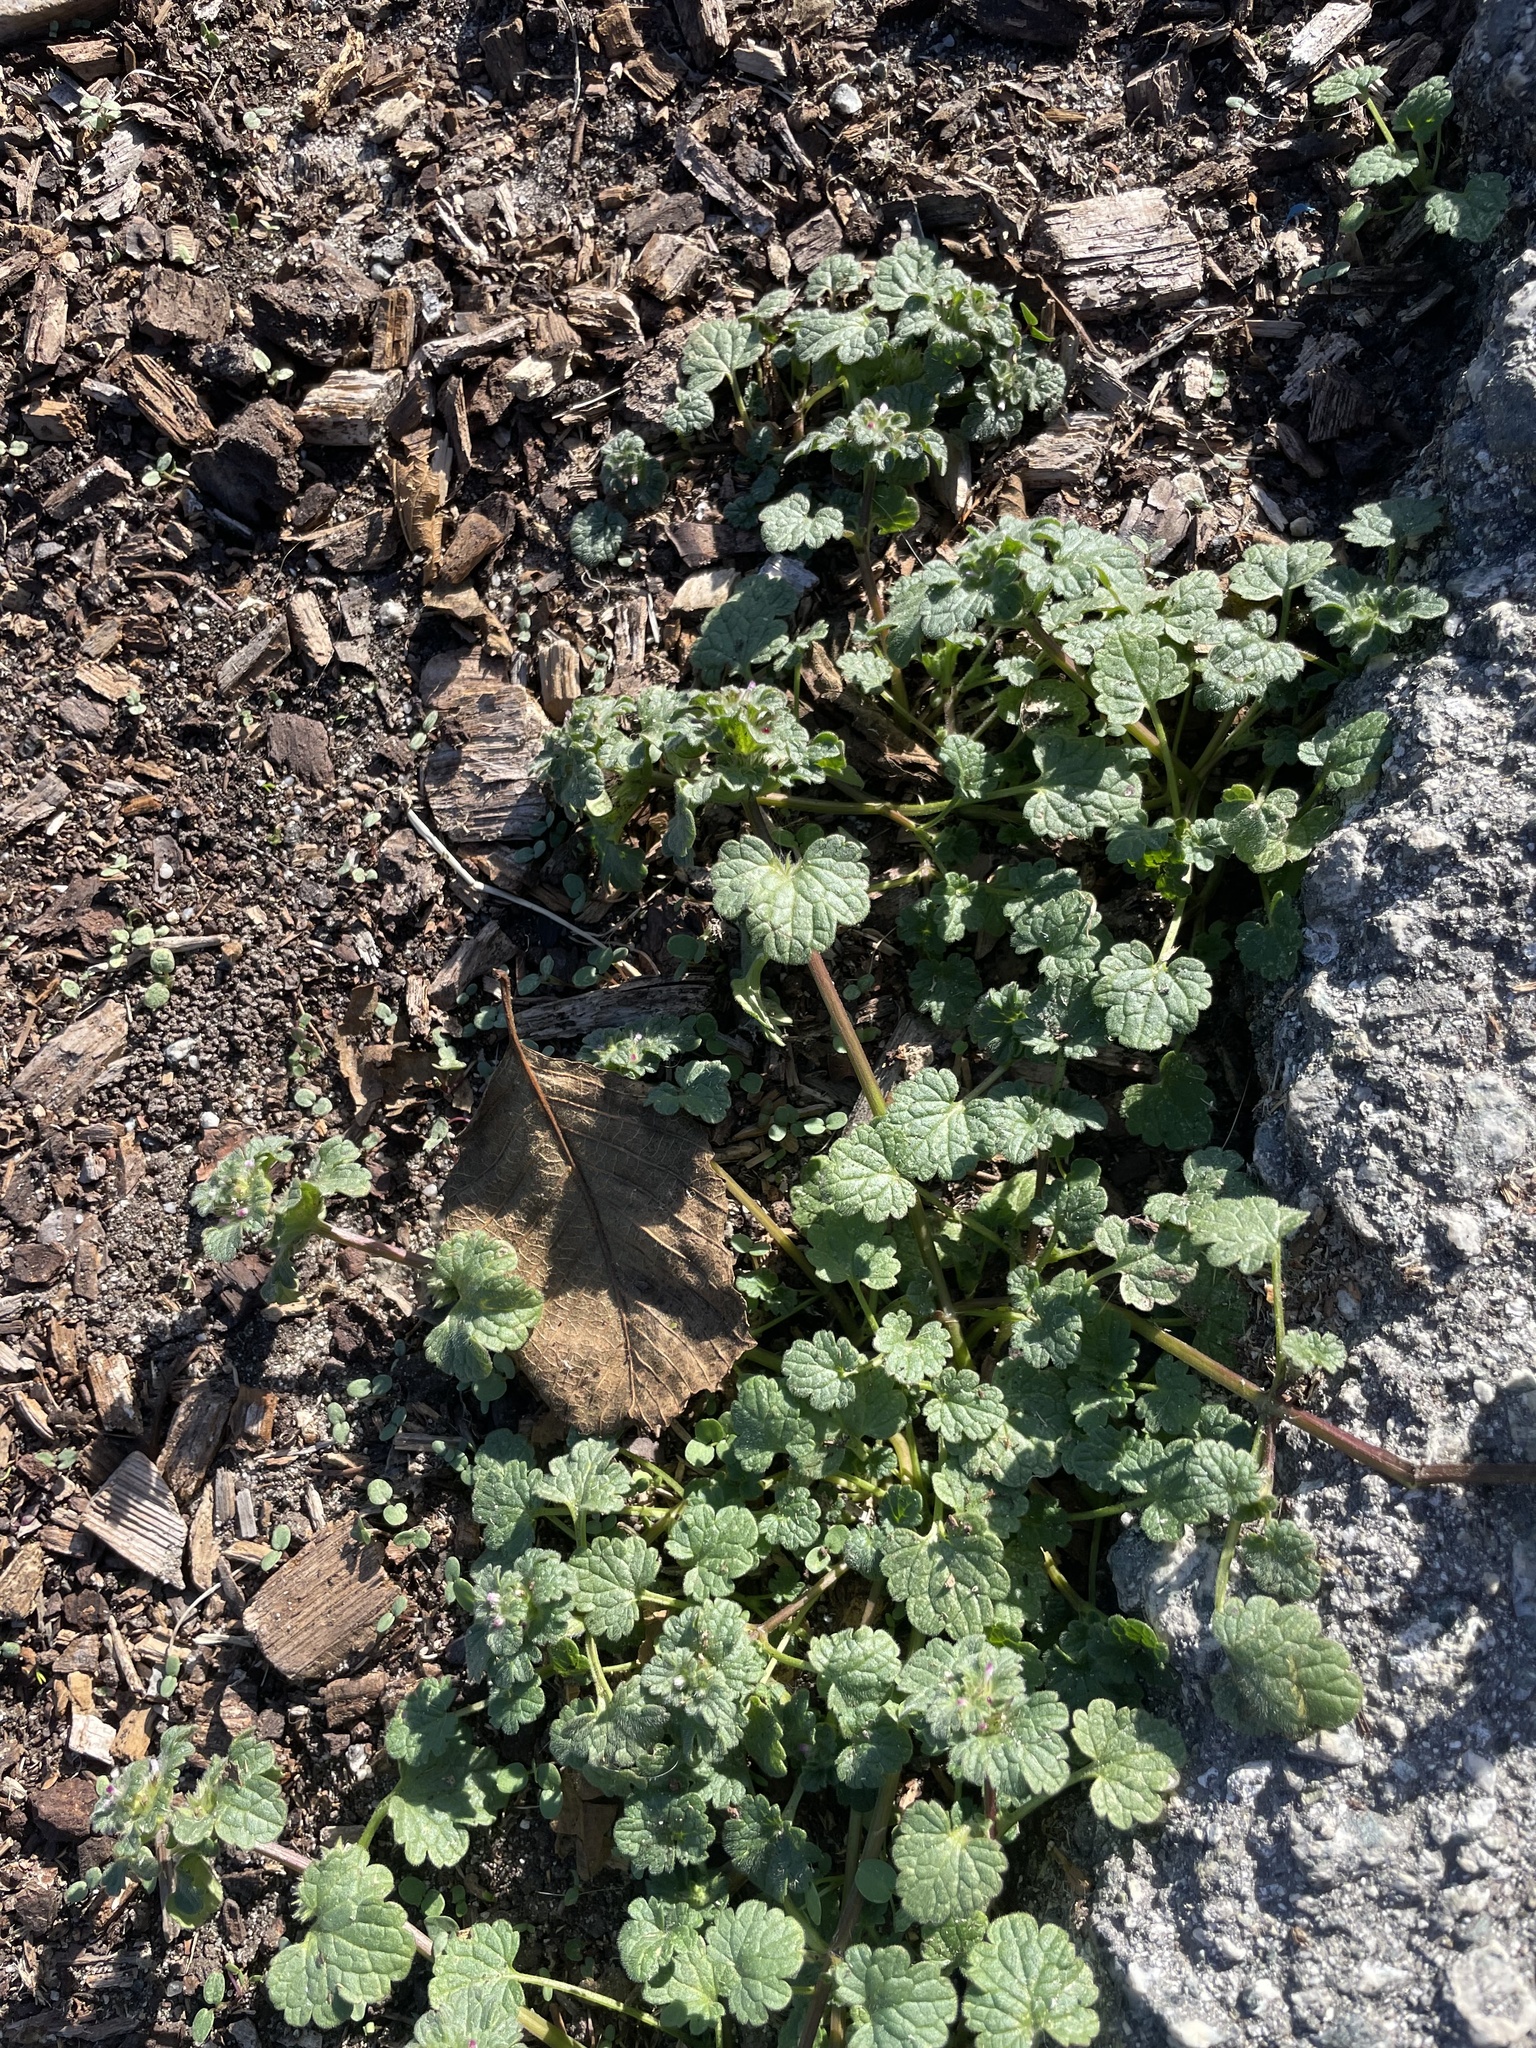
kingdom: Plantae
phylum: Tracheophyta
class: Magnoliopsida
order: Lamiales
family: Lamiaceae
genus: Lamium
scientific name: Lamium amplexicaule
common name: Henbit dead-nettle
